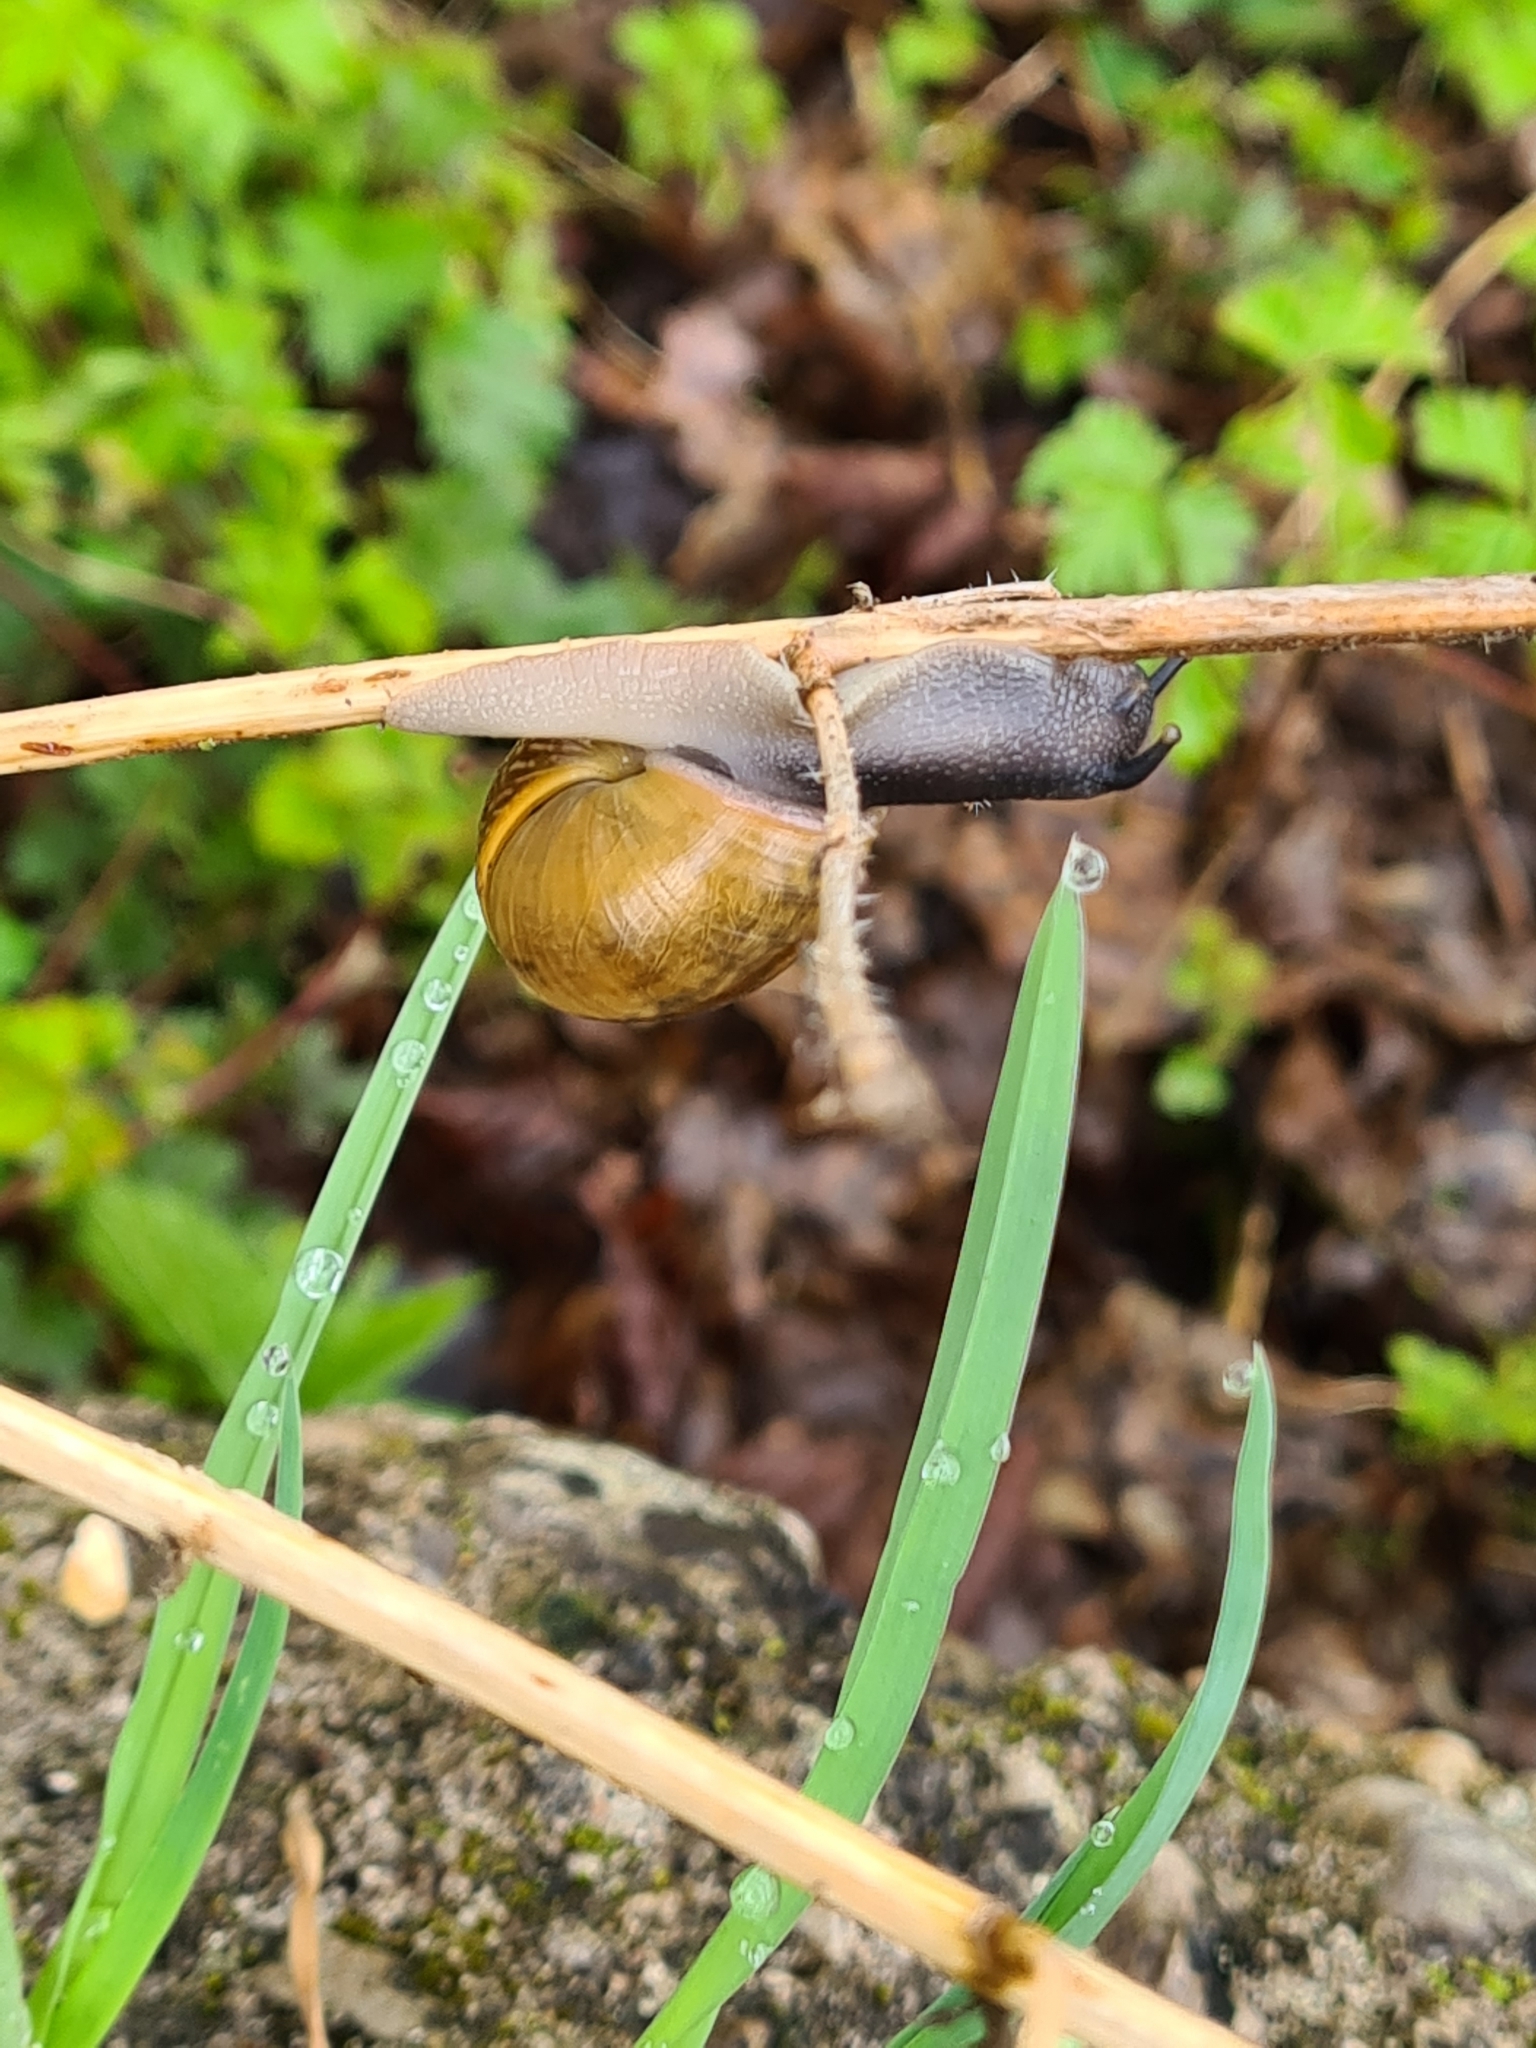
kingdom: Animalia
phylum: Mollusca
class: Gastropoda
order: Stylommatophora
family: Helicidae
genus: Arianta
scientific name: Arianta arbustorum
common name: Copse snail
